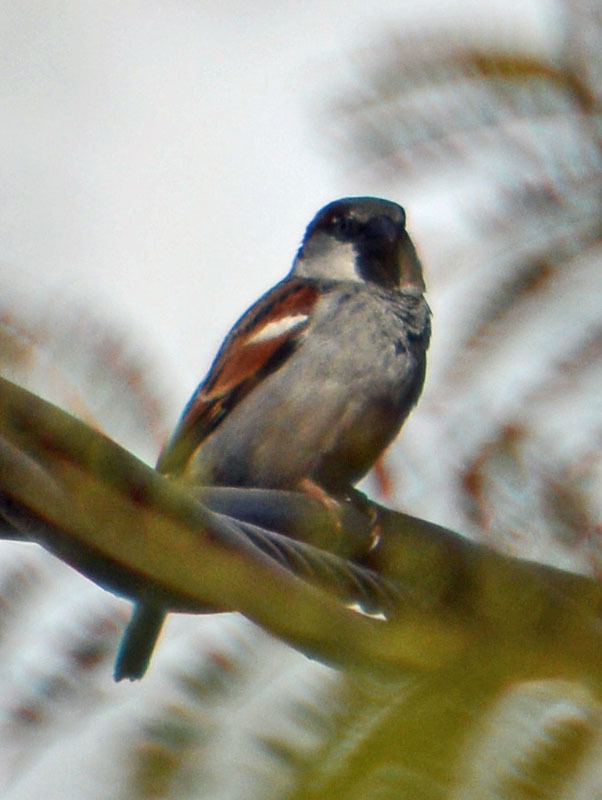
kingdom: Animalia
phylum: Chordata
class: Aves
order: Passeriformes
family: Passeridae
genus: Passer
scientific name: Passer domesticus
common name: House sparrow
